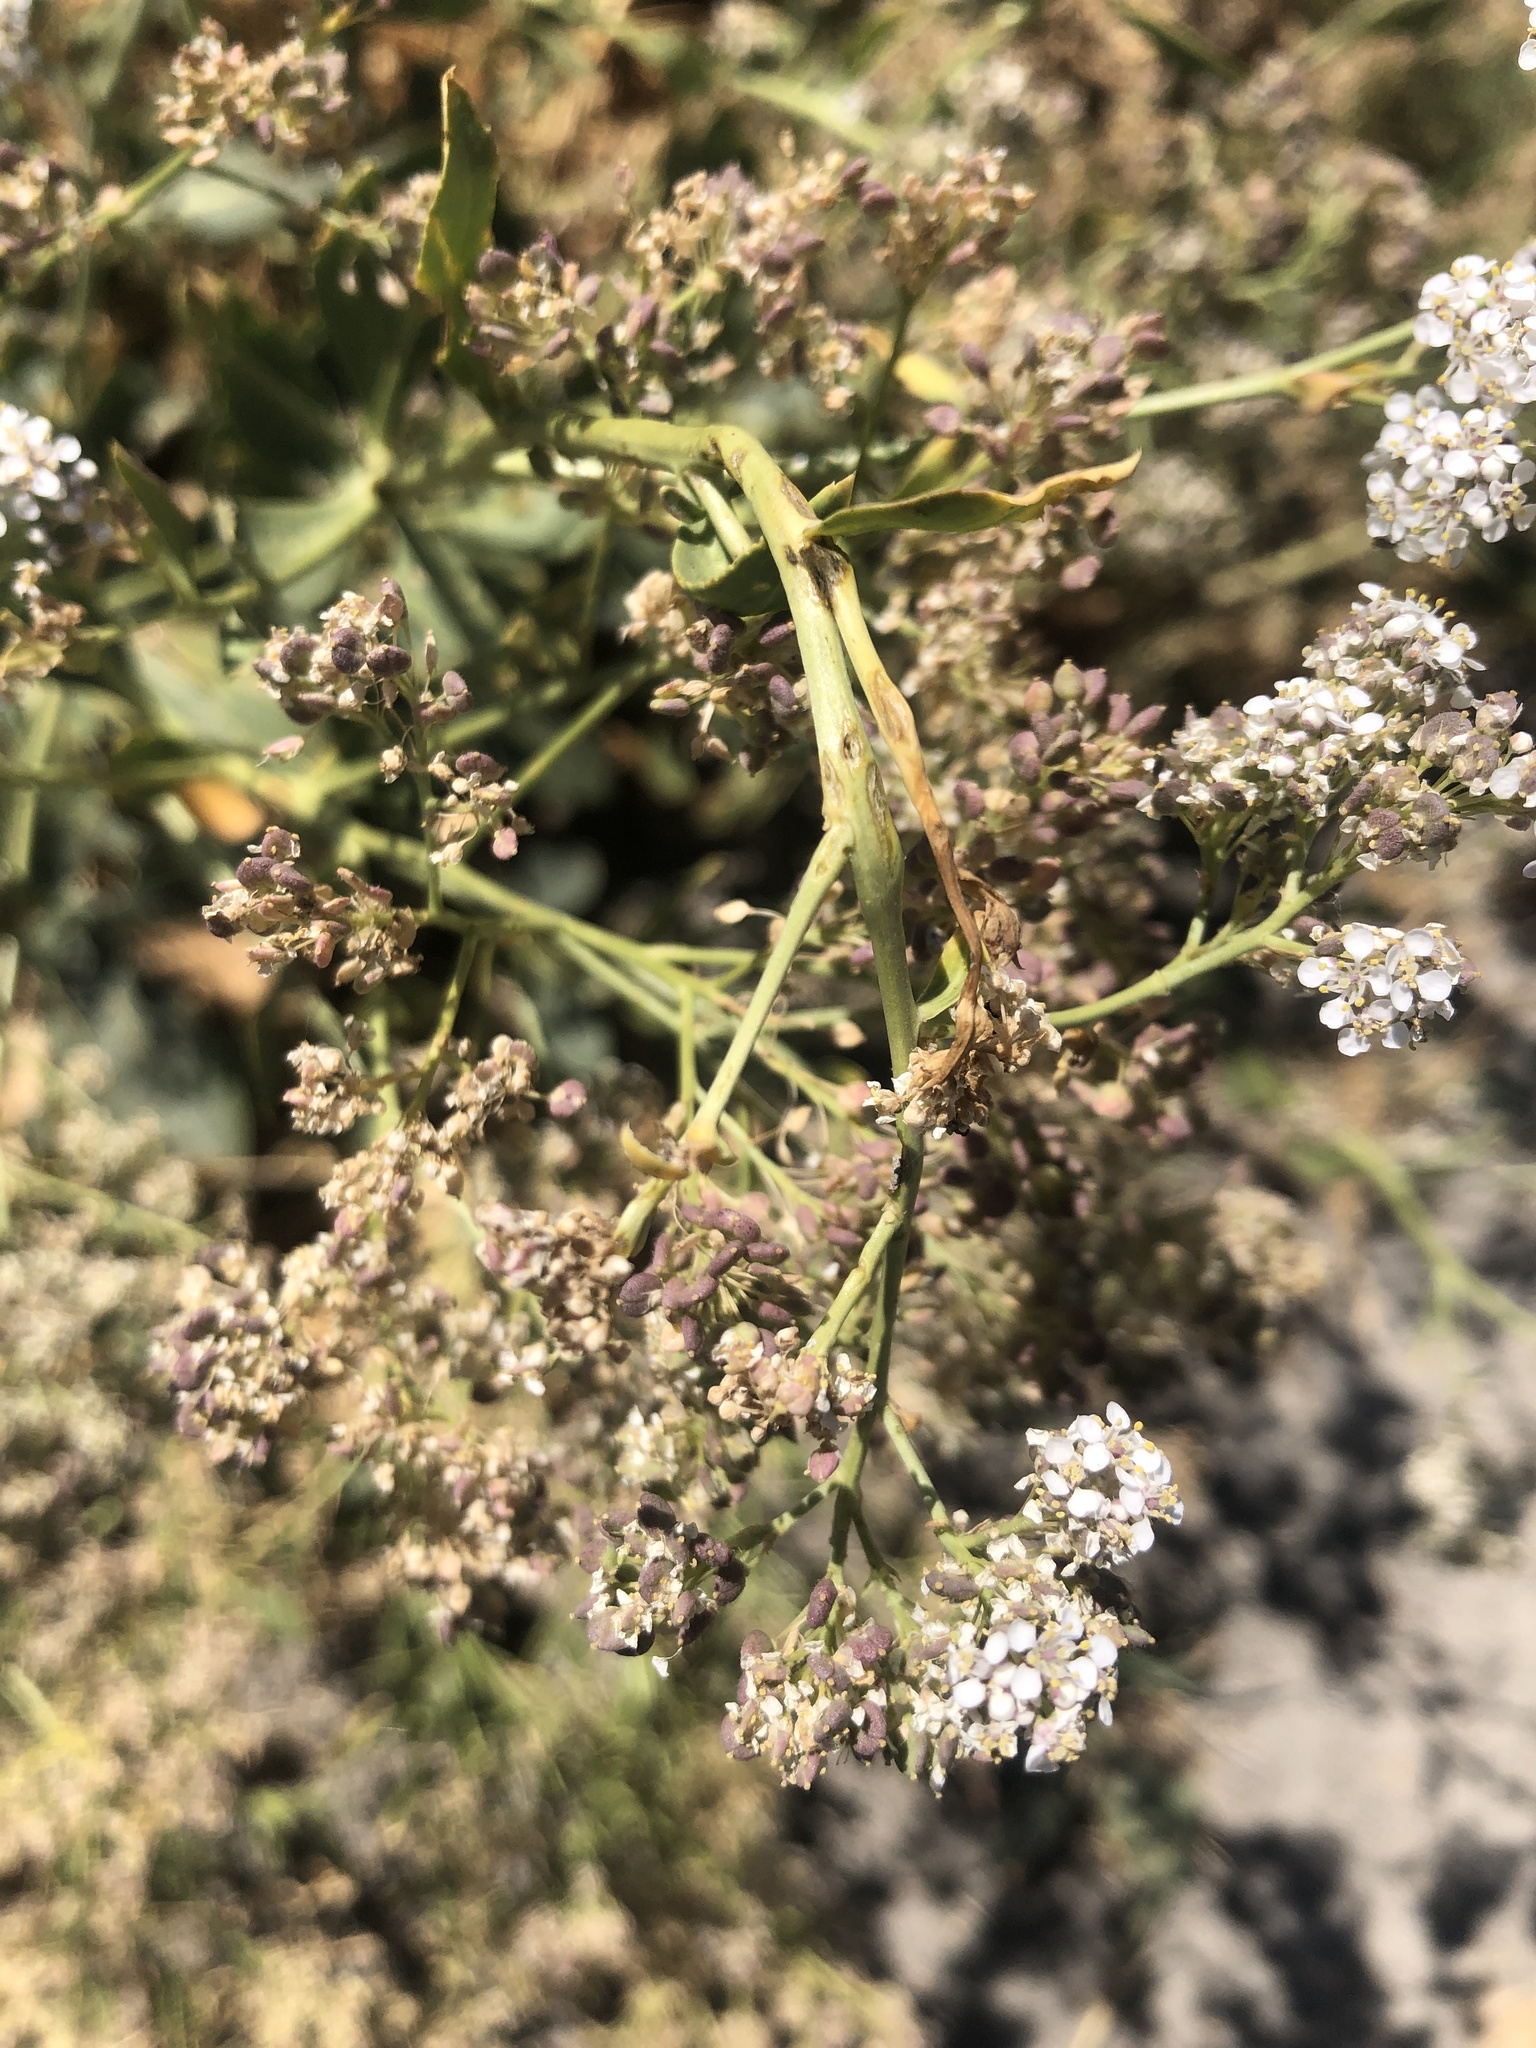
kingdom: Plantae
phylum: Tracheophyta
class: Magnoliopsida
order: Brassicales
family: Brassicaceae
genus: Lepidium
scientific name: Lepidium latifolium
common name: Dittander
